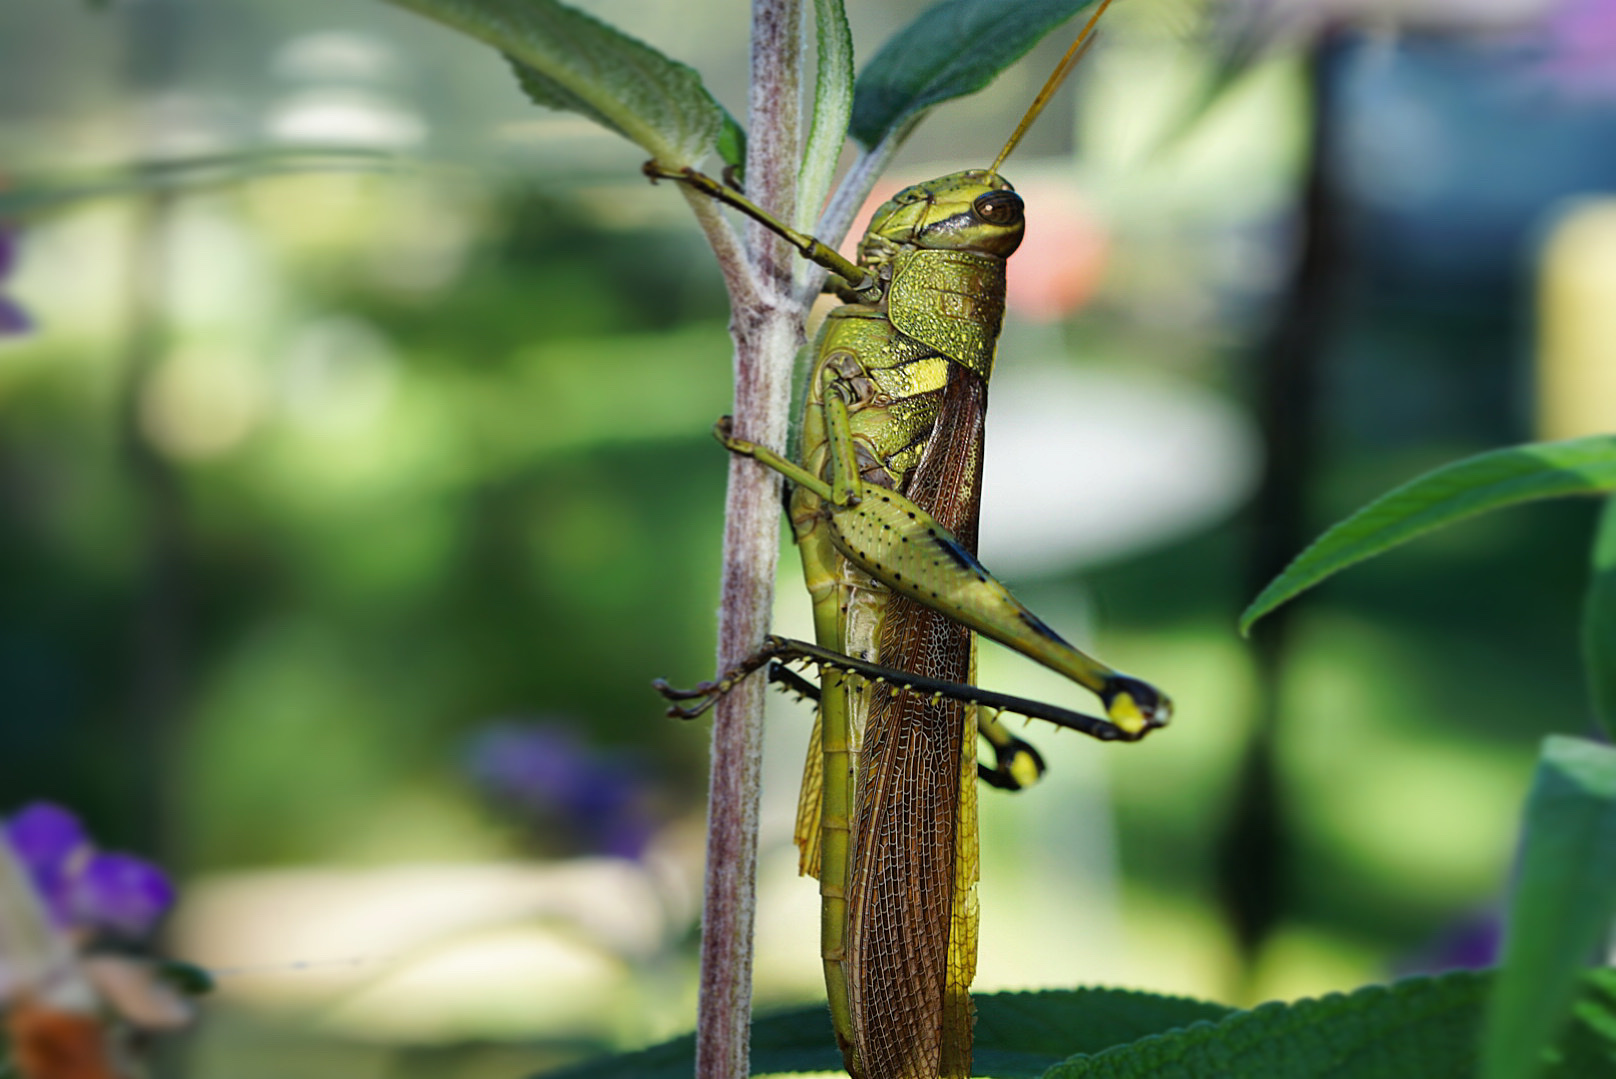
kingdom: Animalia
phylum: Arthropoda
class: Insecta
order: Orthoptera
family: Acrididae
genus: Schistocerca
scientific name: Schistocerca obscura
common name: Obscure bird grasshopper
